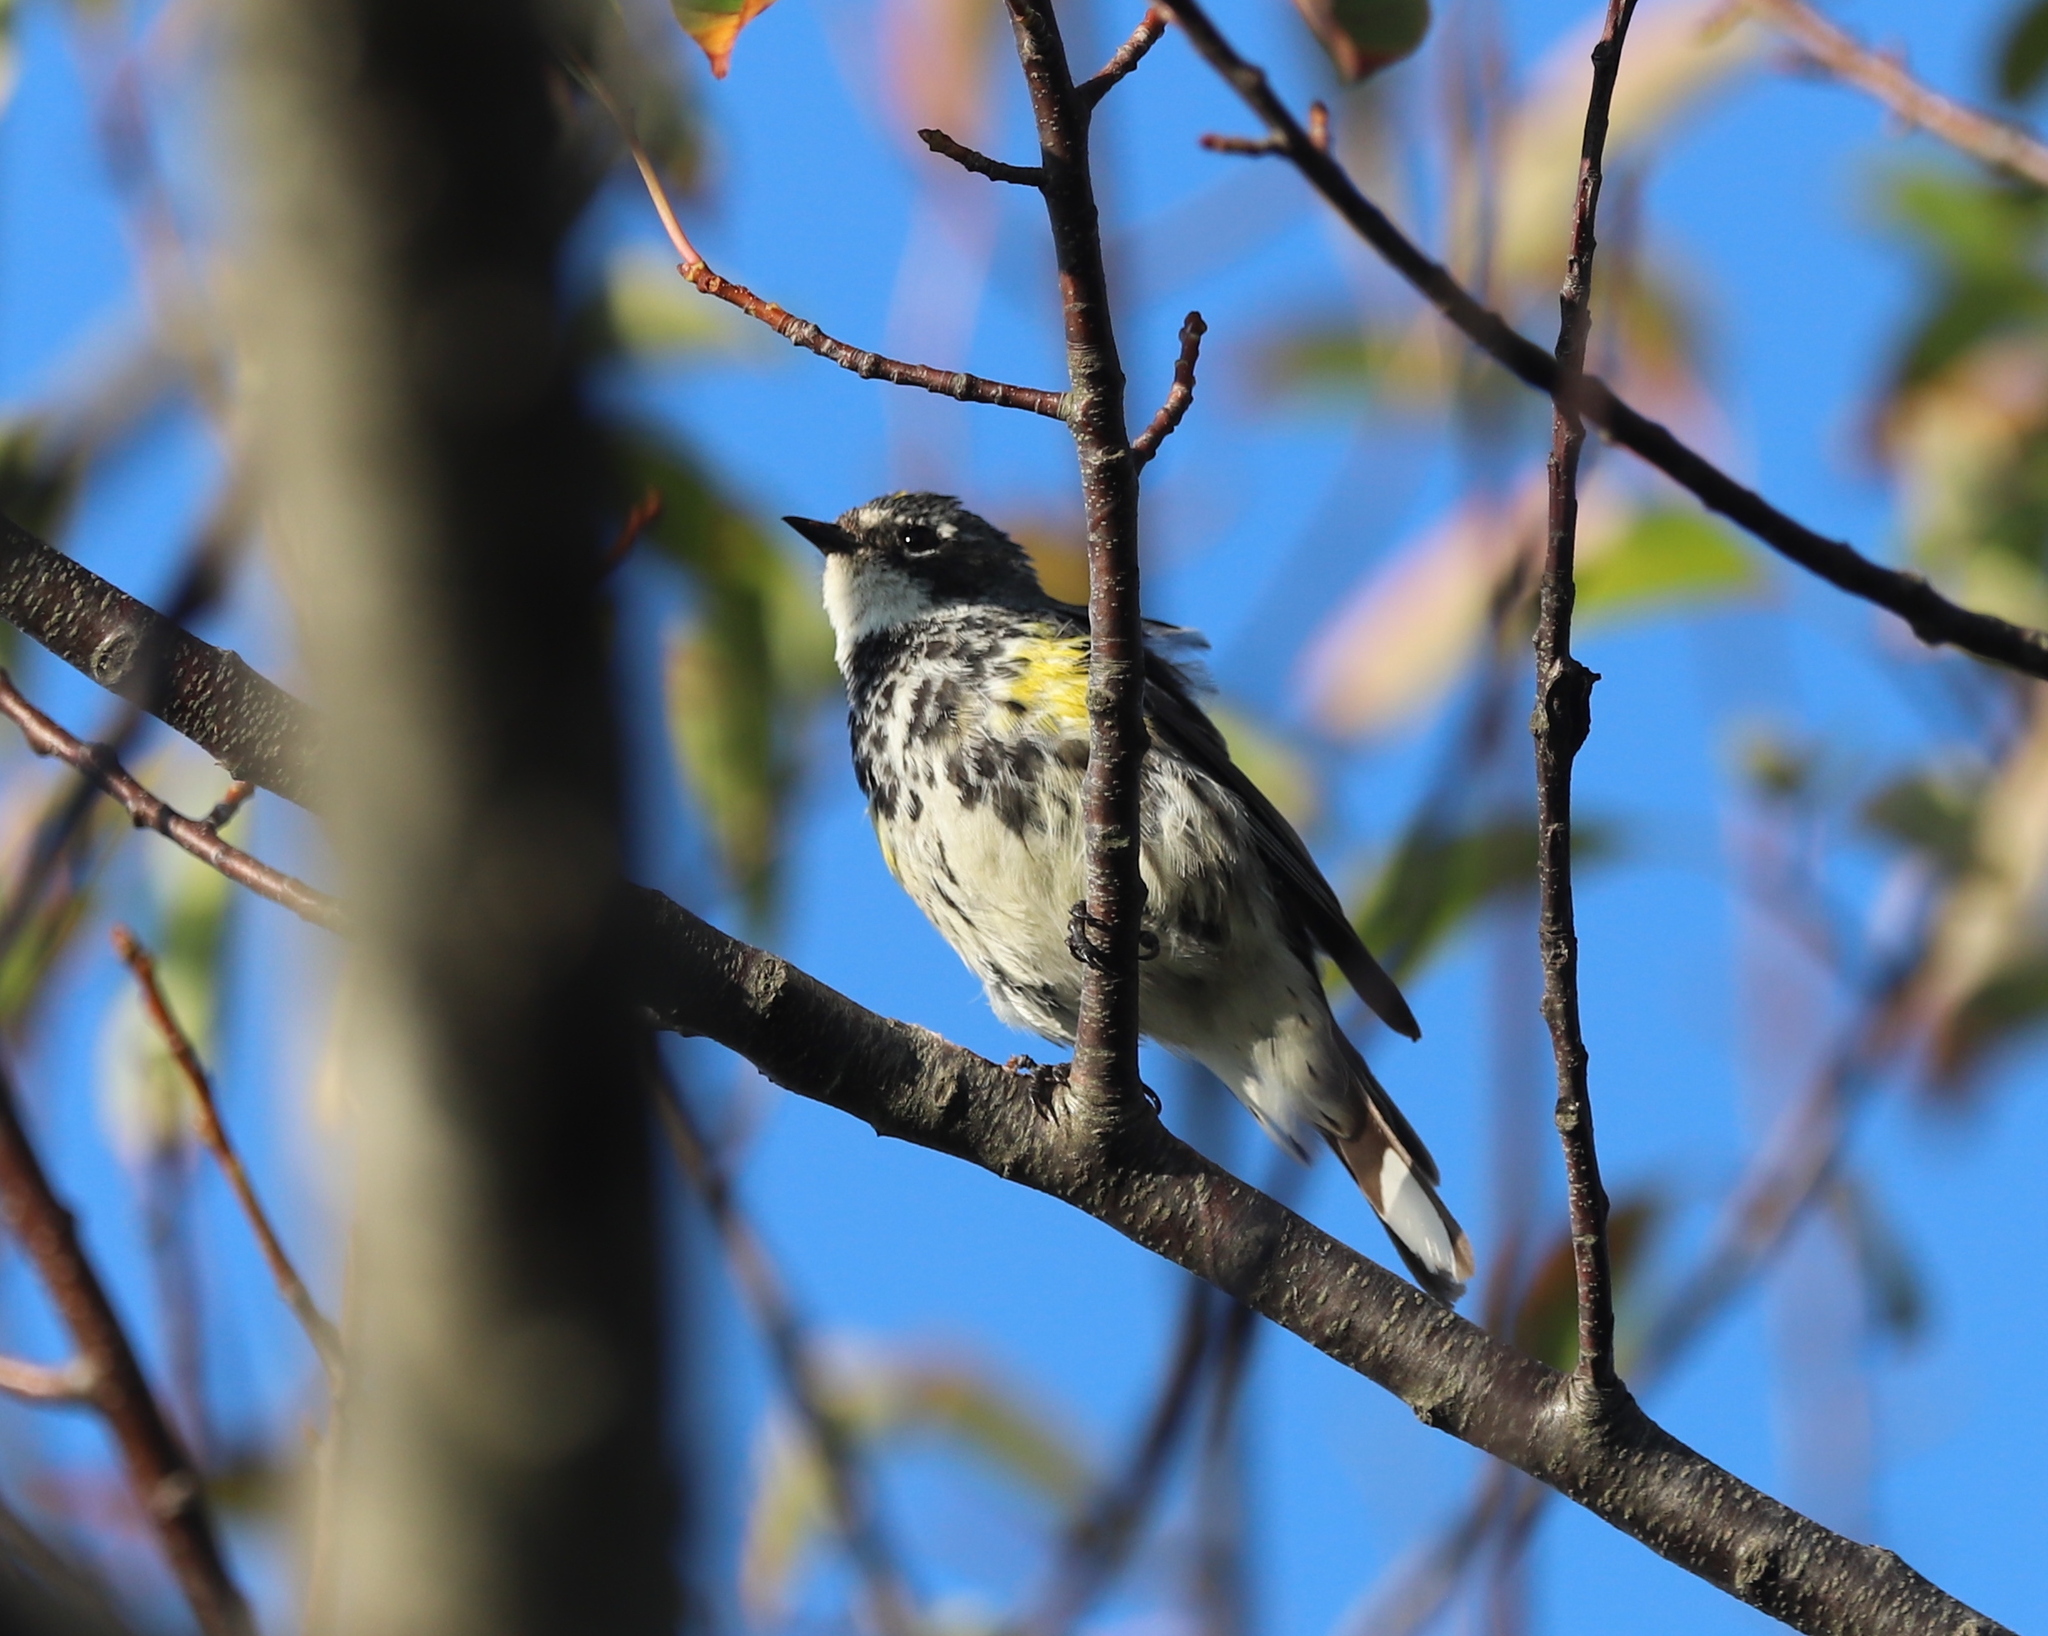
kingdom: Animalia
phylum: Chordata
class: Aves
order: Passeriformes
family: Parulidae
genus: Setophaga
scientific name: Setophaga coronata
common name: Myrtle warbler
